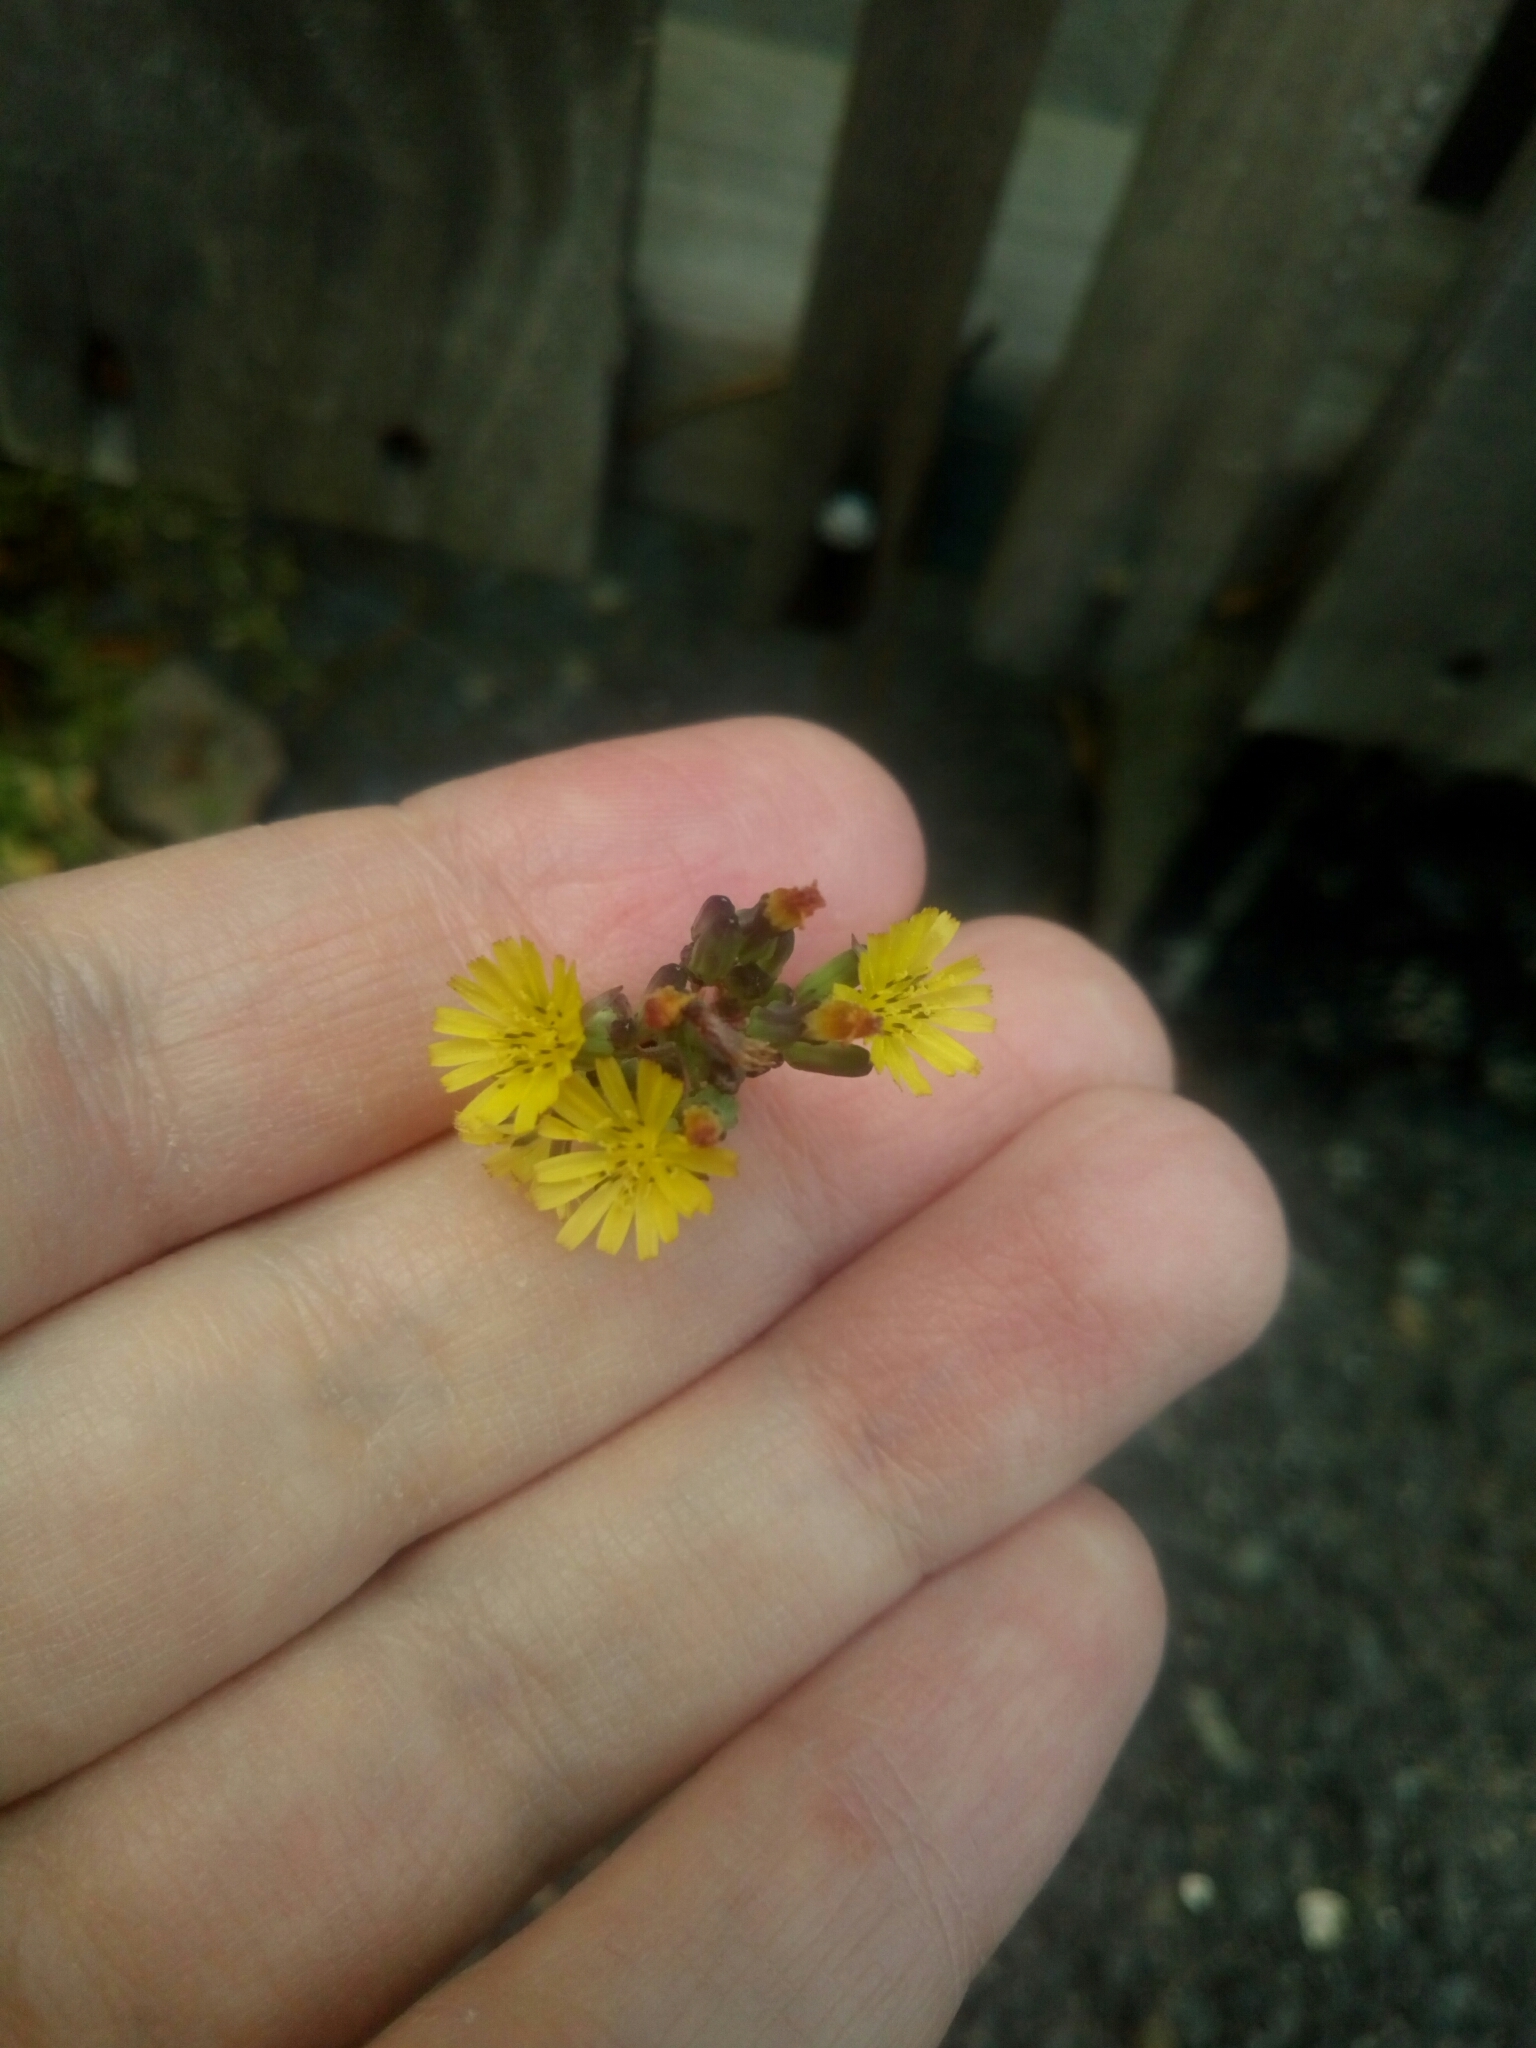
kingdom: Plantae
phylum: Tracheophyta
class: Magnoliopsida
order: Asterales
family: Asteraceae
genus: Youngia
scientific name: Youngia japonica
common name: Oriental false hawksbeard
